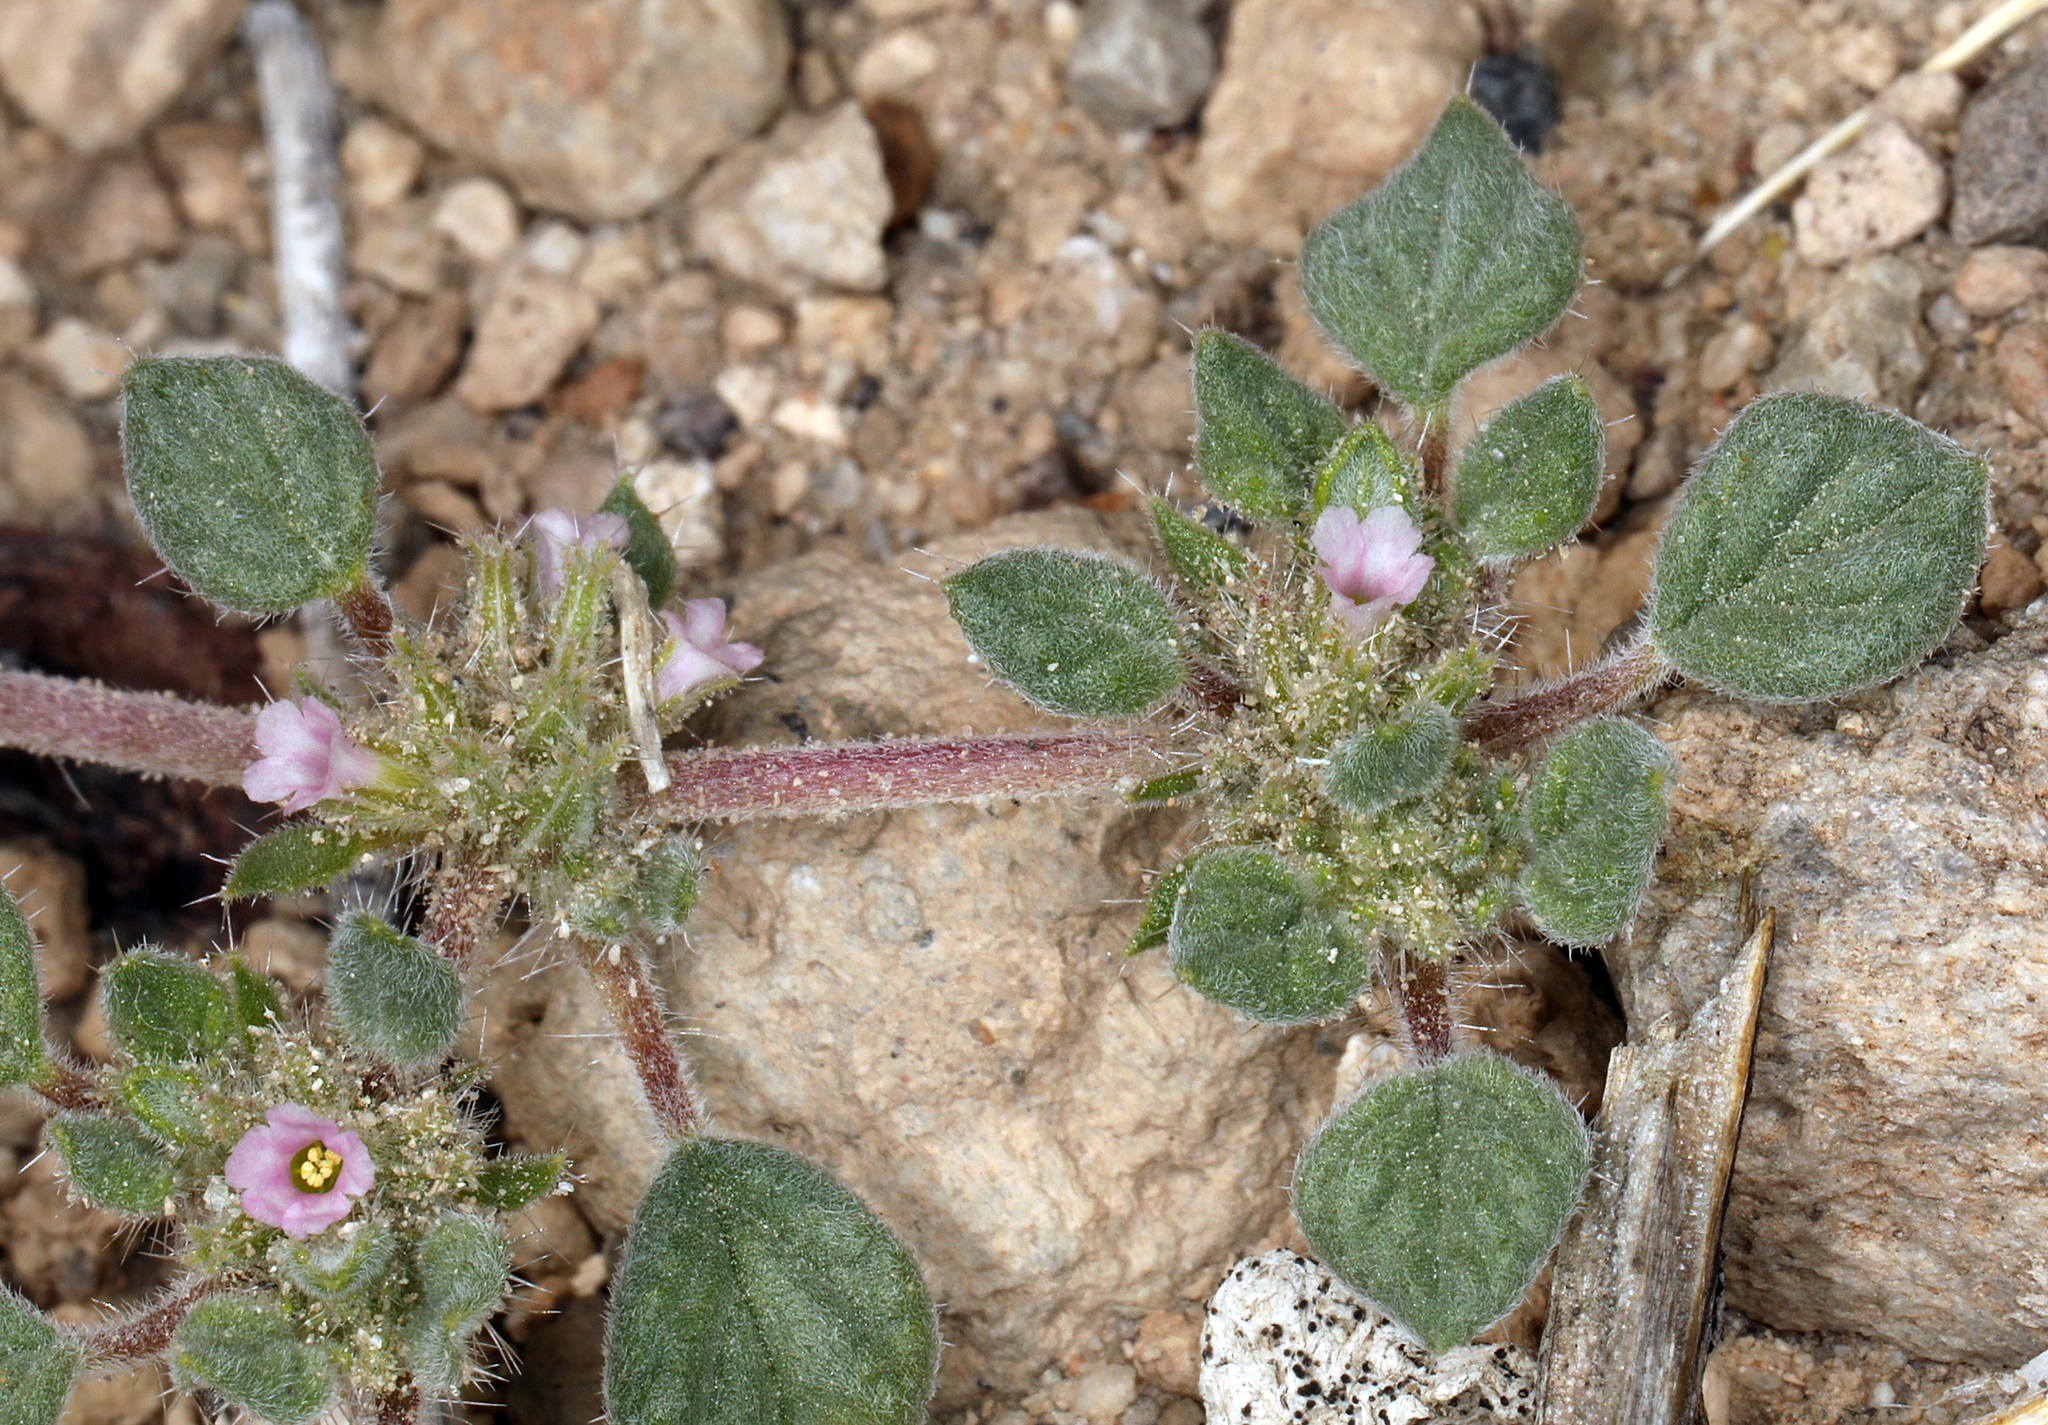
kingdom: Plantae
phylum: Tracheophyta
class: Magnoliopsida
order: Boraginales
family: Ehretiaceae
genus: Tiquilia
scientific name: Tiquilia nuttallii
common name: Rosette tiquilia
